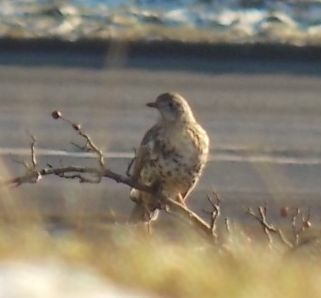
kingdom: Animalia
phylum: Chordata
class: Aves
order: Passeriformes
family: Turdidae
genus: Turdus
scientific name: Turdus viscivorus
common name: Mistle thrush
